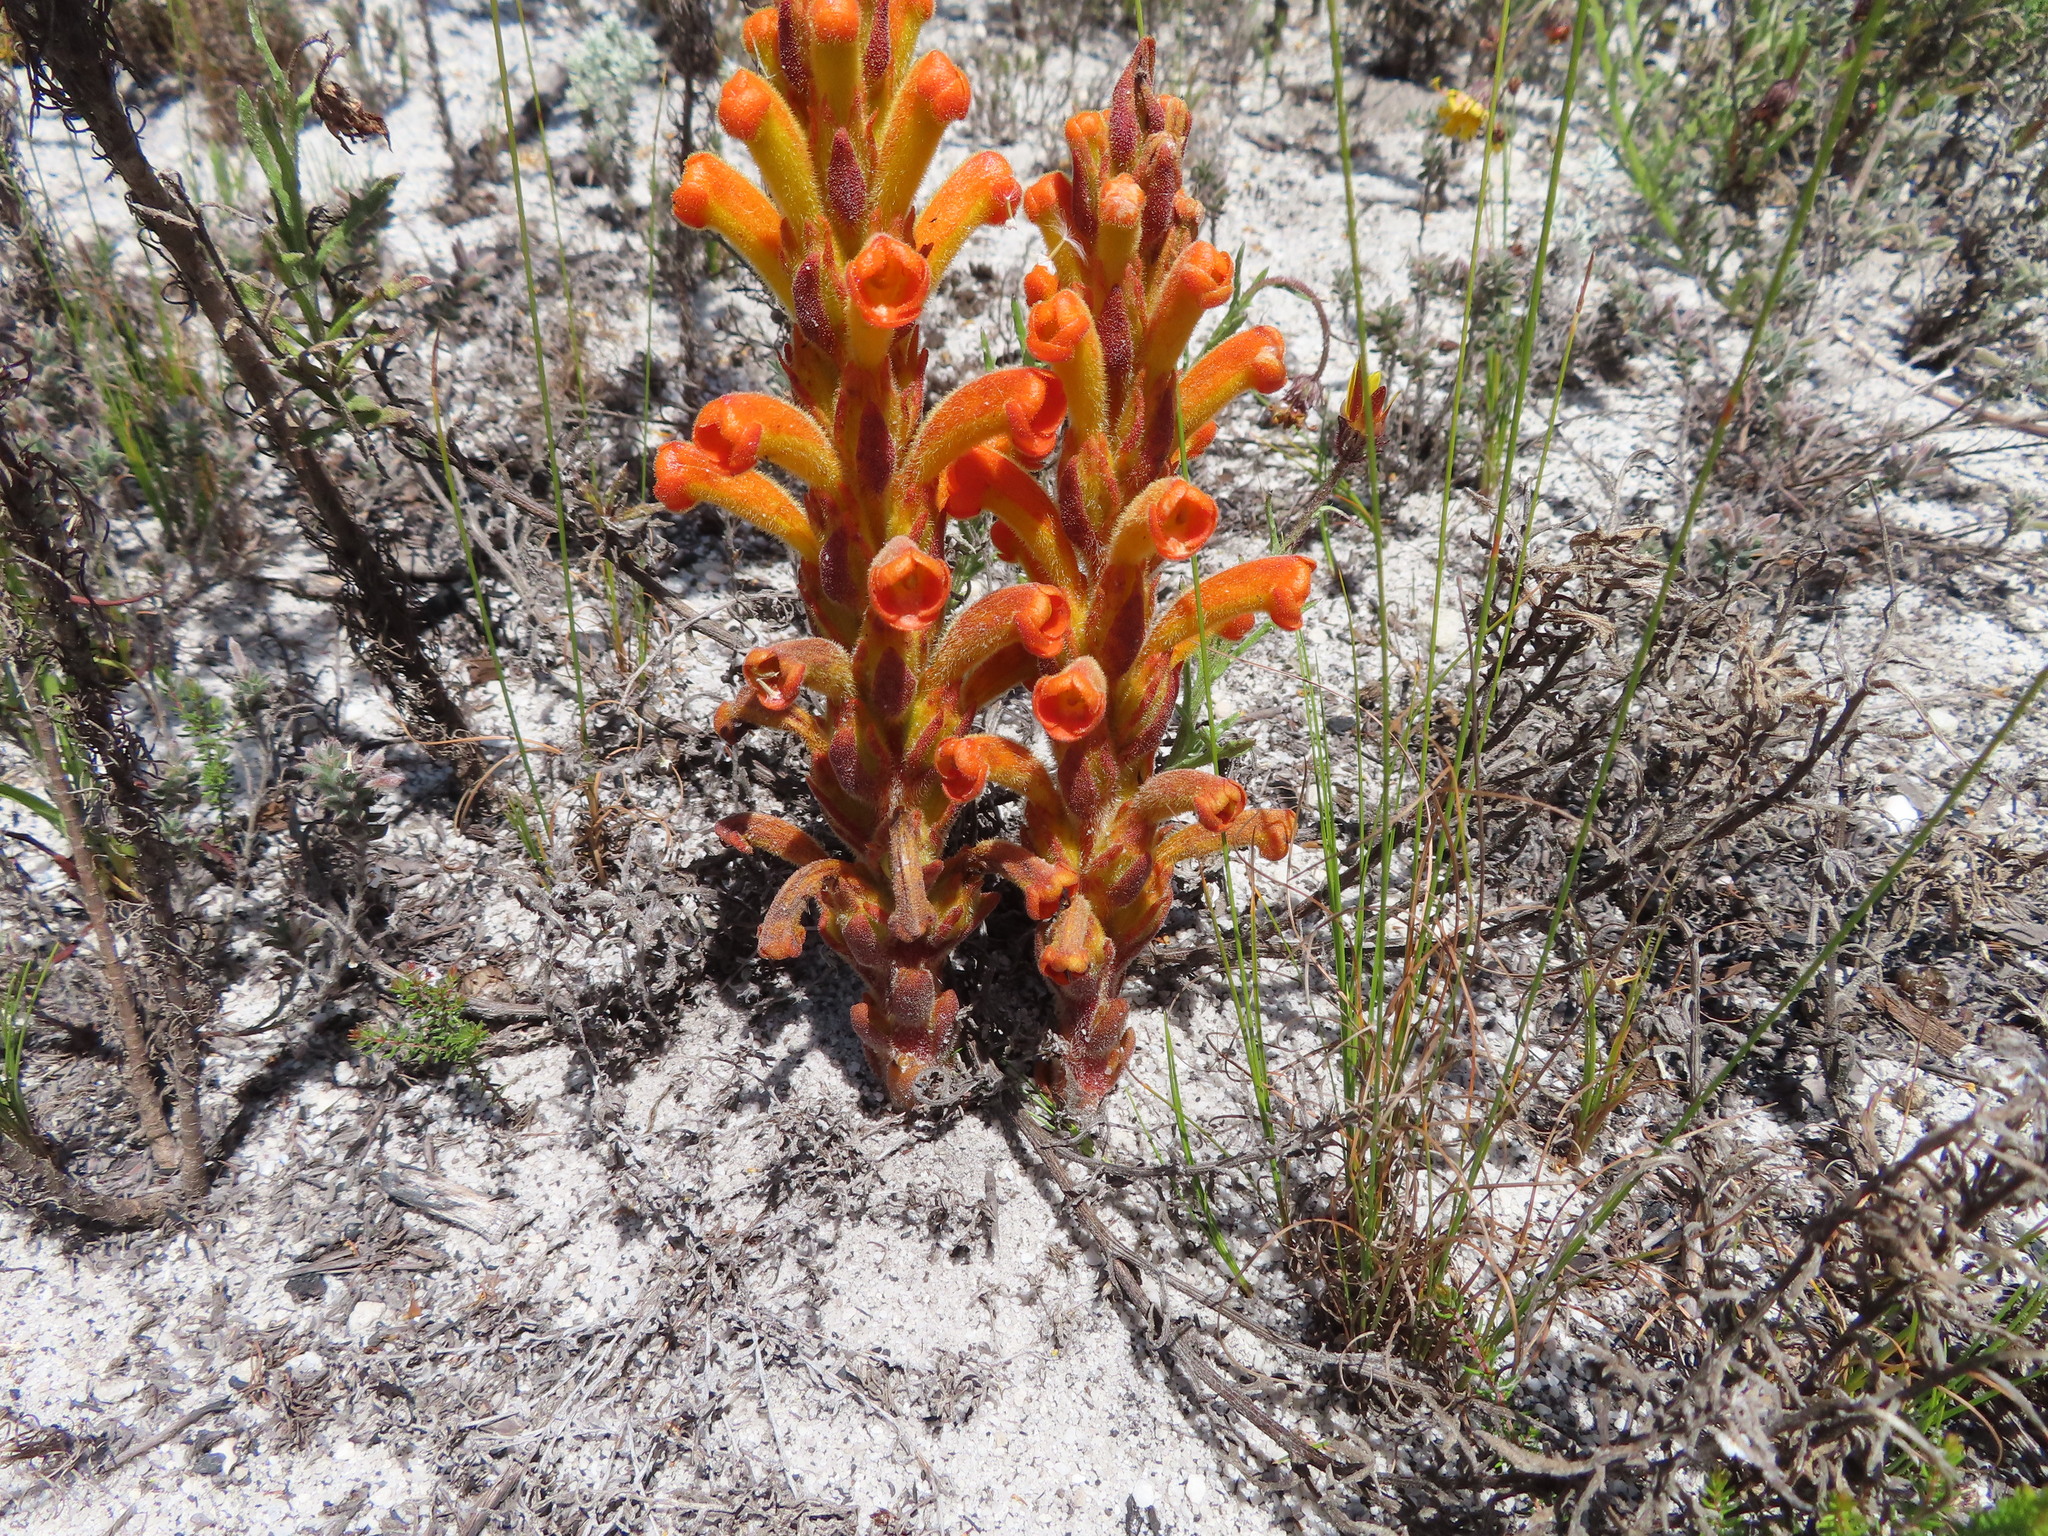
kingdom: Plantae
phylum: Tracheophyta
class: Magnoliopsida
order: Lamiales
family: Orobanchaceae
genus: Harveya
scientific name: Harveya squamosa
